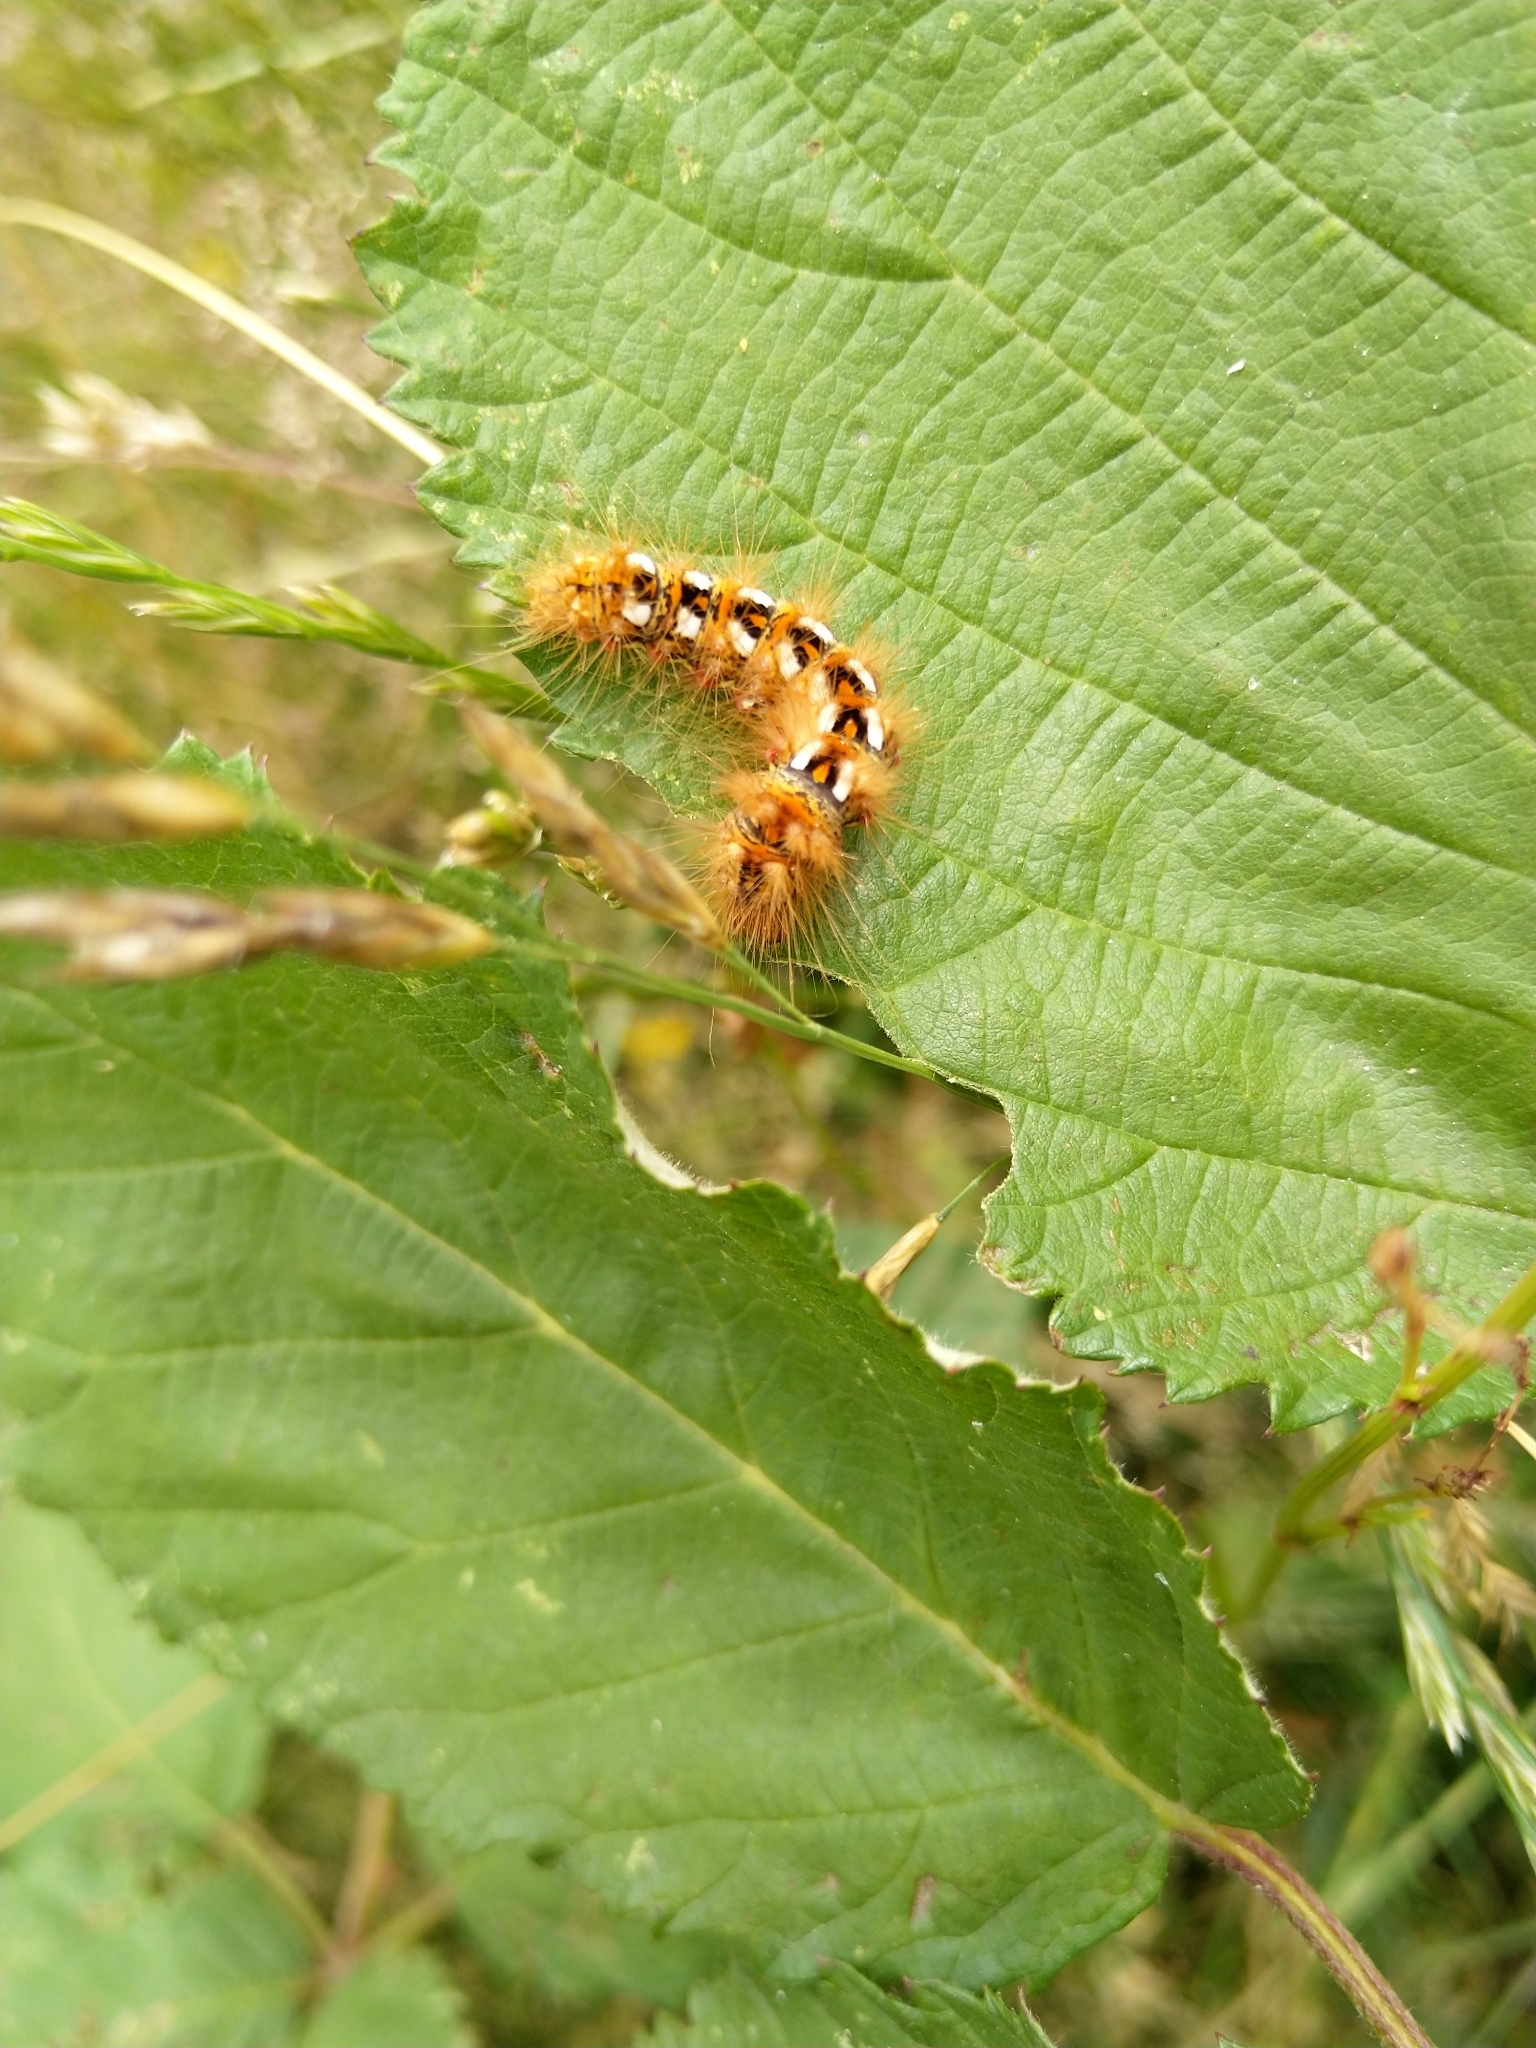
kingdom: Animalia
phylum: Arthropoda
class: Insecta
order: Lepidoptera
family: Noctuidae
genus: Acronicta
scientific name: Acronicta rumicis
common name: Knot grass
